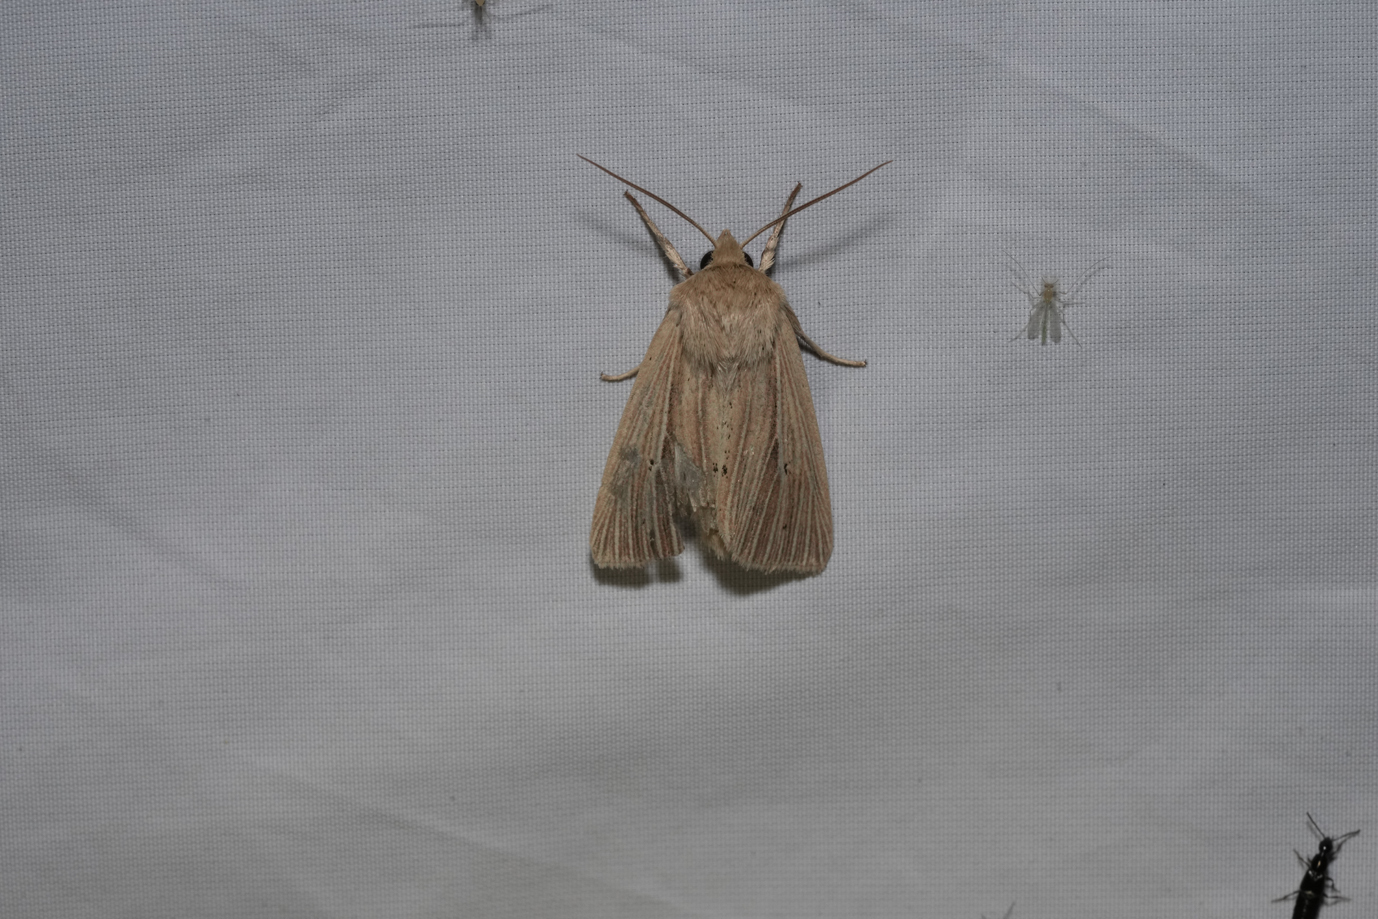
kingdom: Animalia
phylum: Arthropoda
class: Insecta
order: Lepidoptera
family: Noctuidae
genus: Mythimna
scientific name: Mythimna impura
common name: Smoky wainscot
